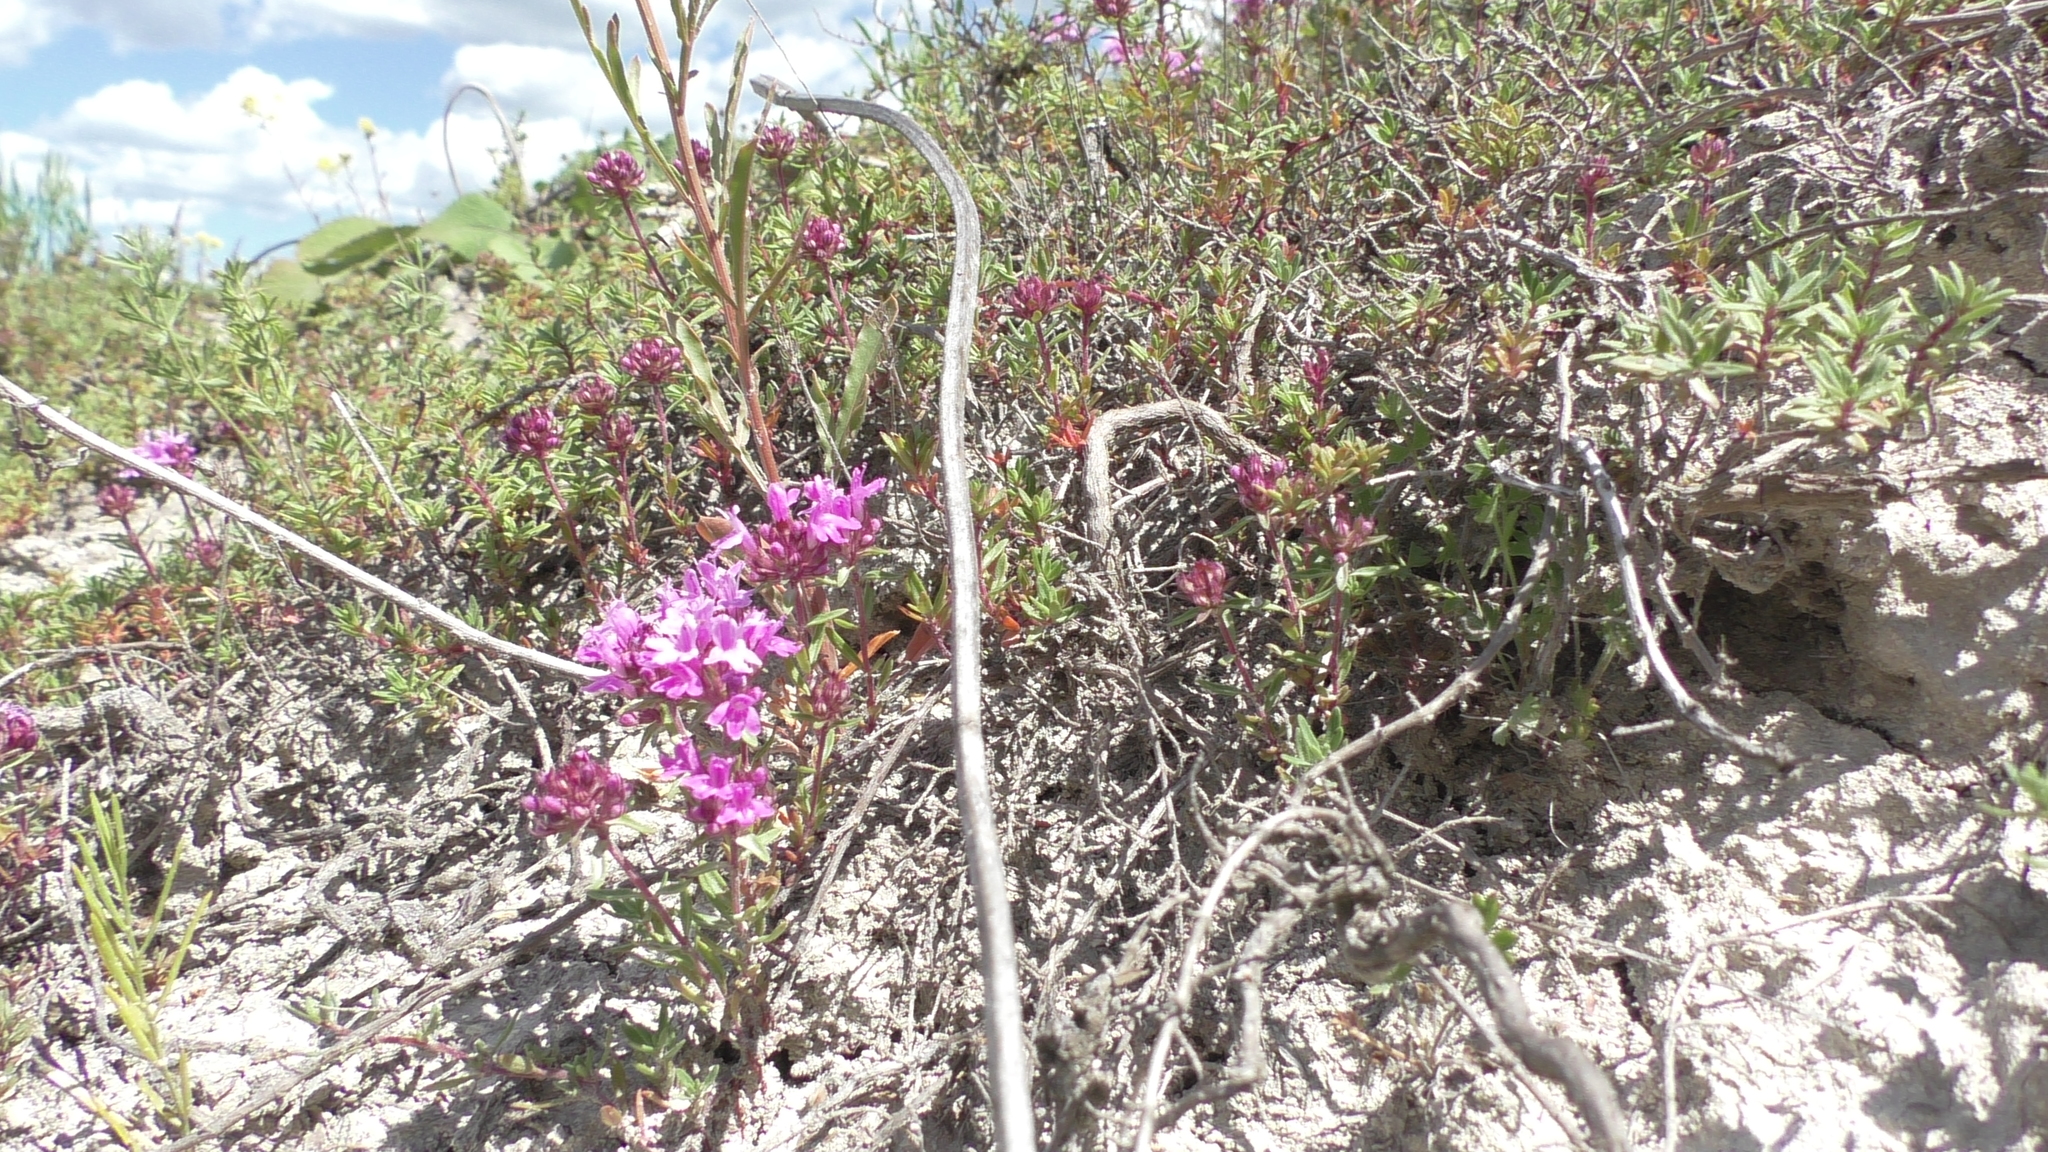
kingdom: Plantae
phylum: Tracheophyta
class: Magnoliopsida
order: Lamiales
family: Lamiaceae
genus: Thymus
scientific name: Thymus calcareus
